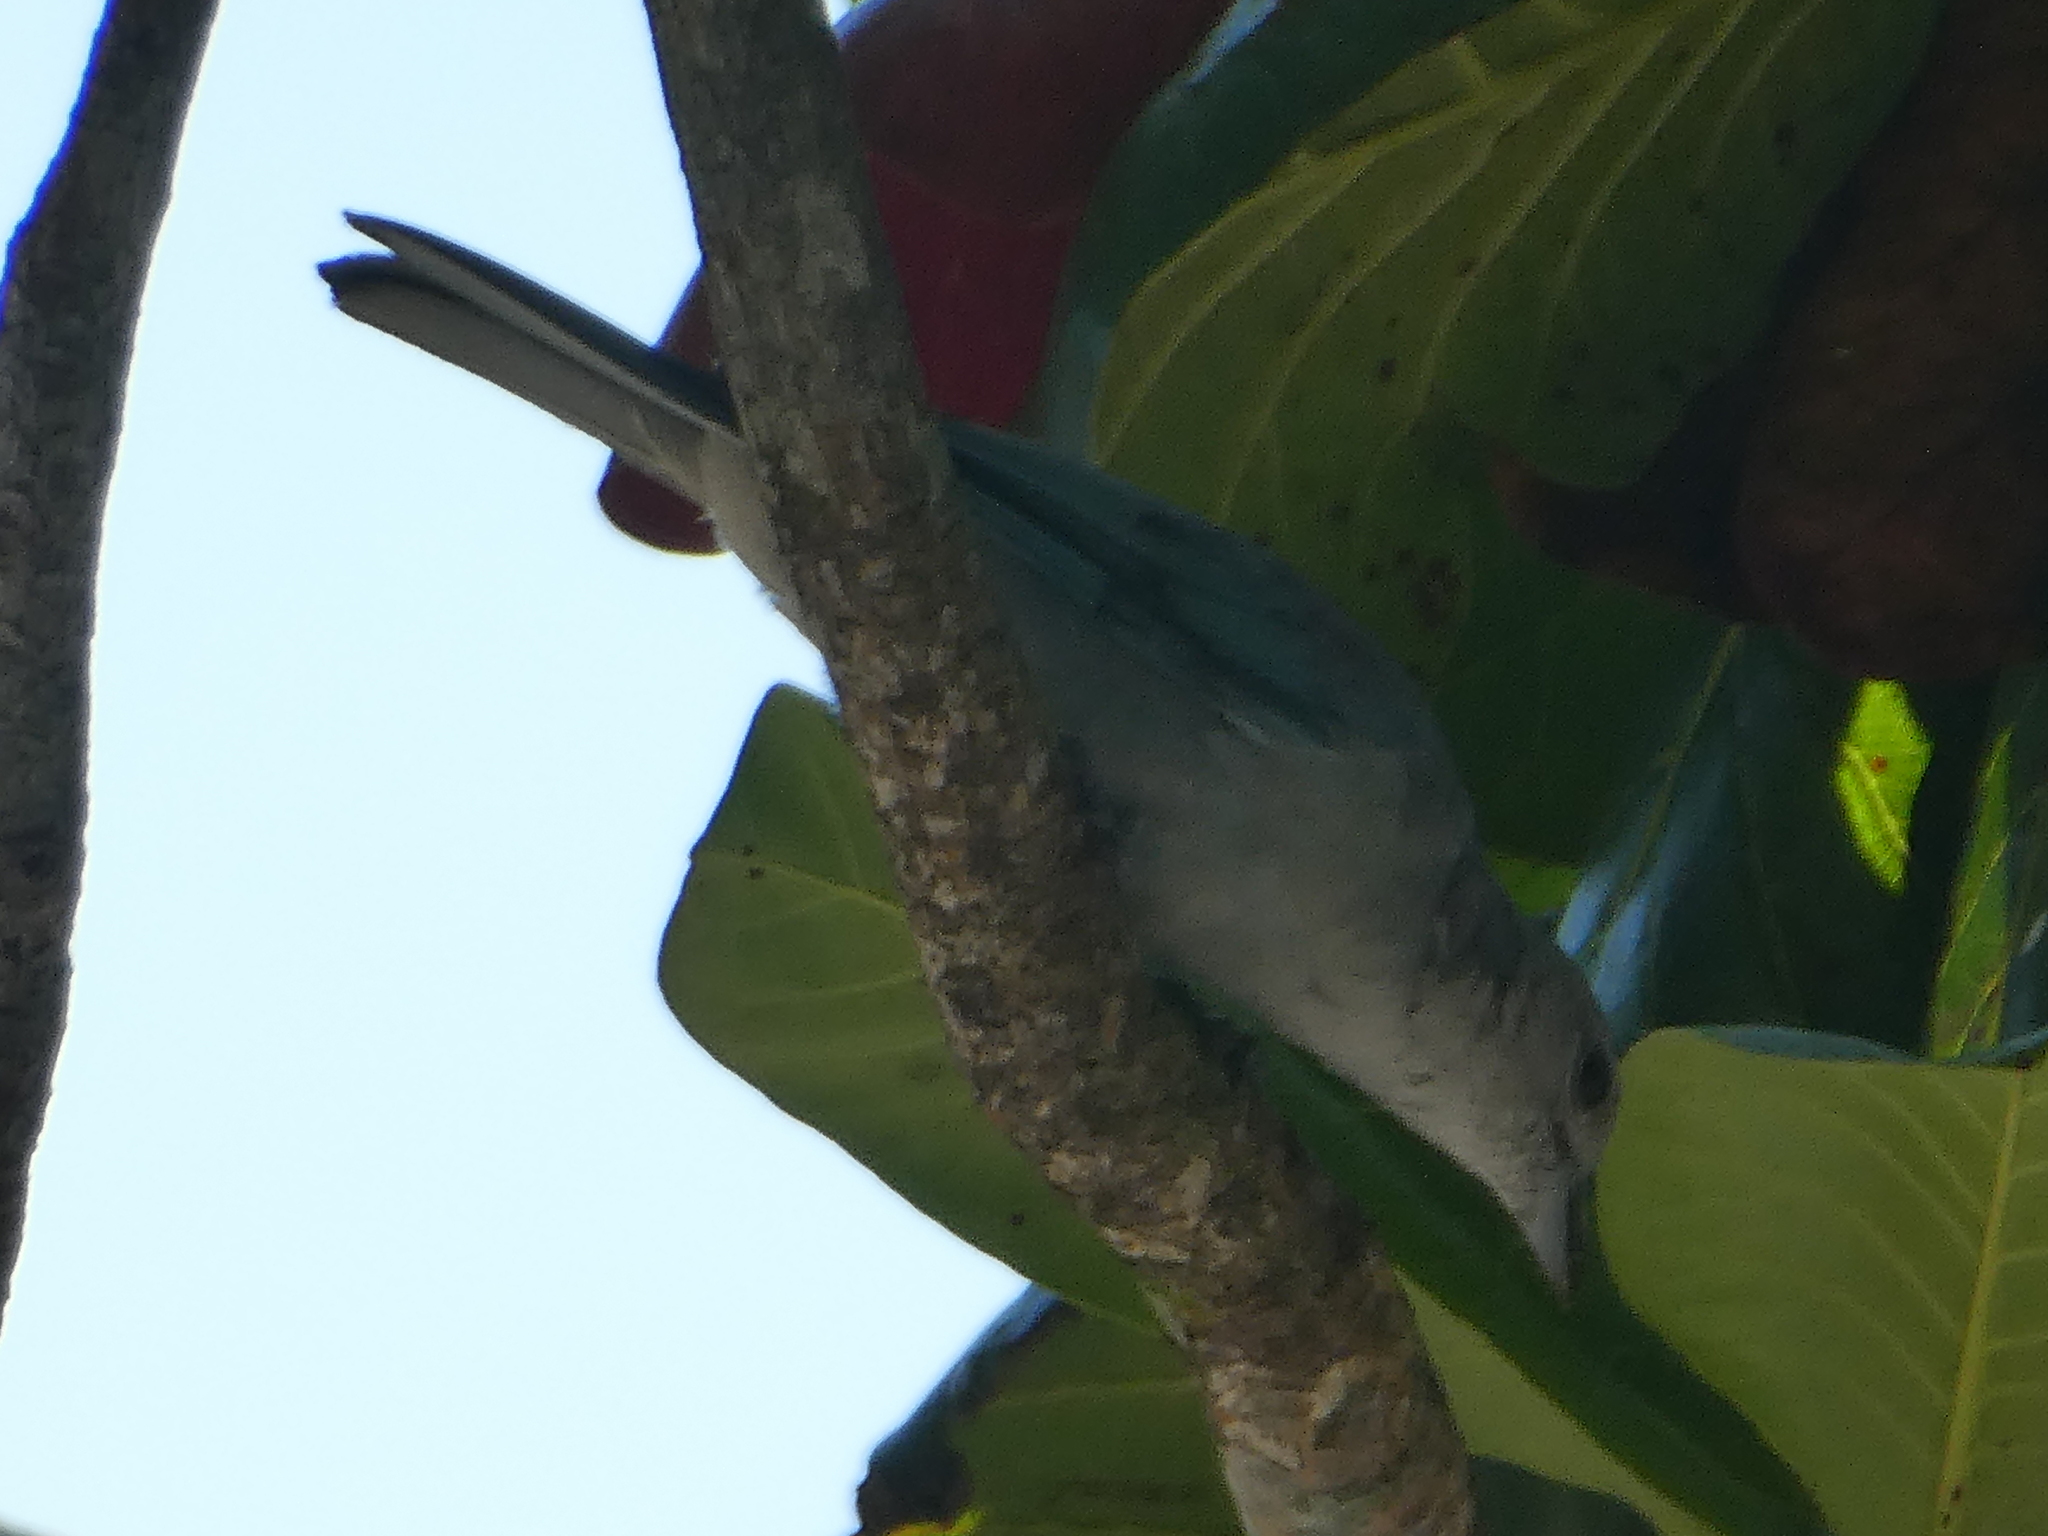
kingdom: Animalia
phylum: Chordata
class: Aves
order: Passeriformes
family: Thraupidae
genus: Thraupis
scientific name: Thraupis sayaca
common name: Sayaca tanager
